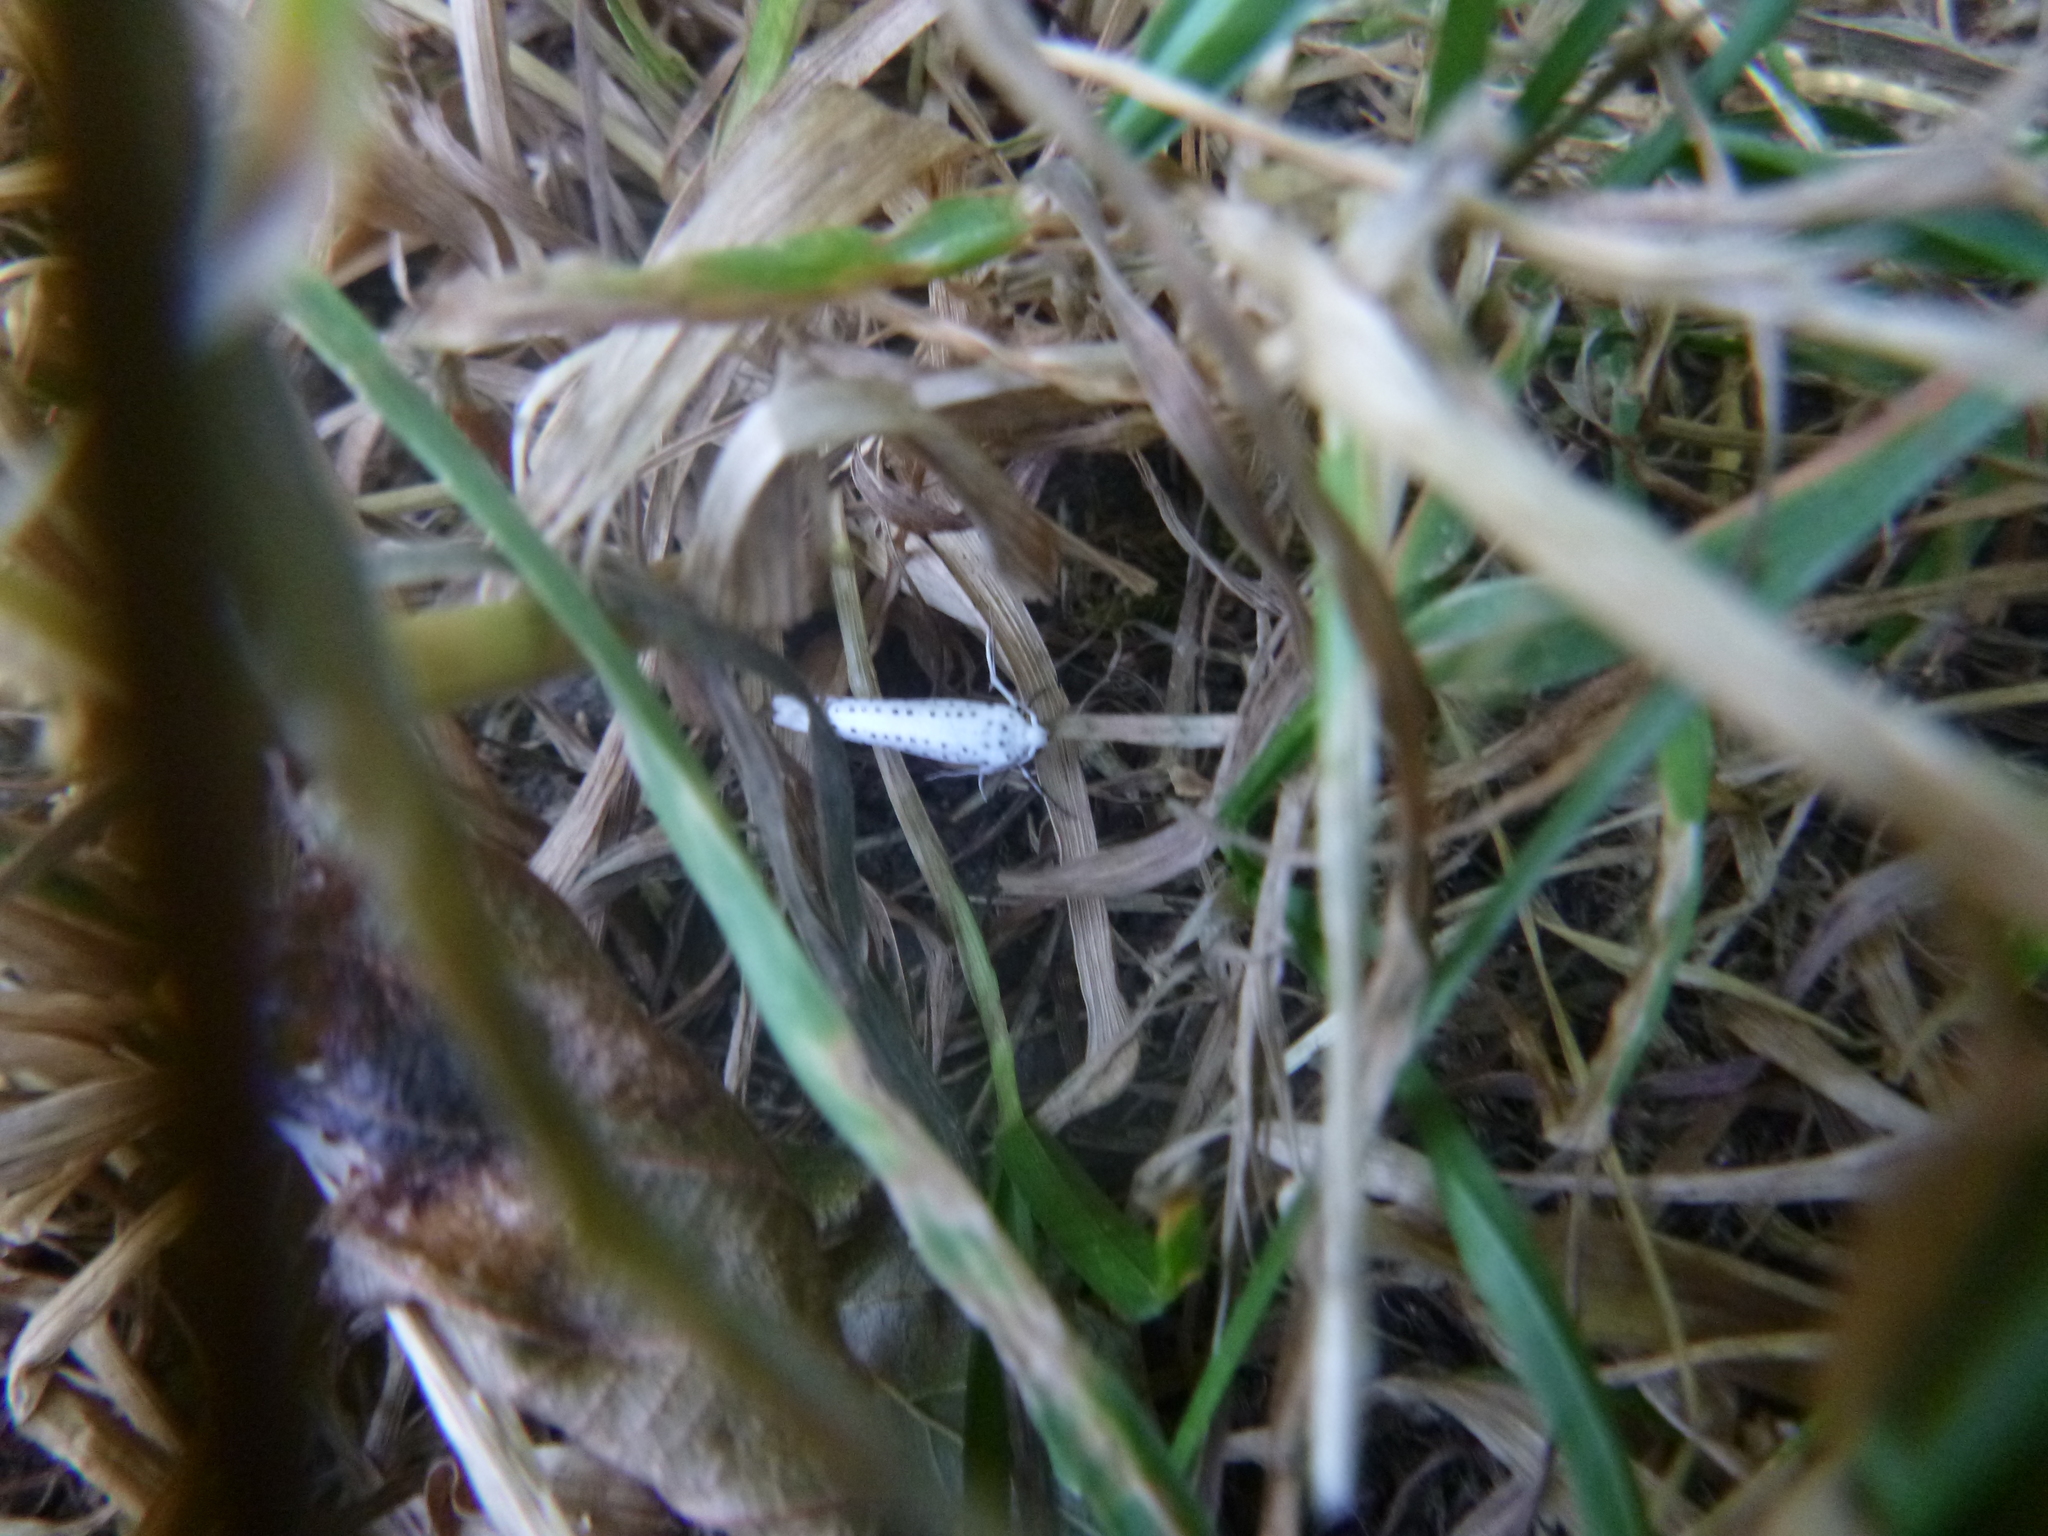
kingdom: Animalia
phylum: Arthropoda
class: Insecta
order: Lepidoptera
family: Yponomeutidae
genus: Yponomeuta
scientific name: Yponomeuta evonymella
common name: Bird-cherry ermine
